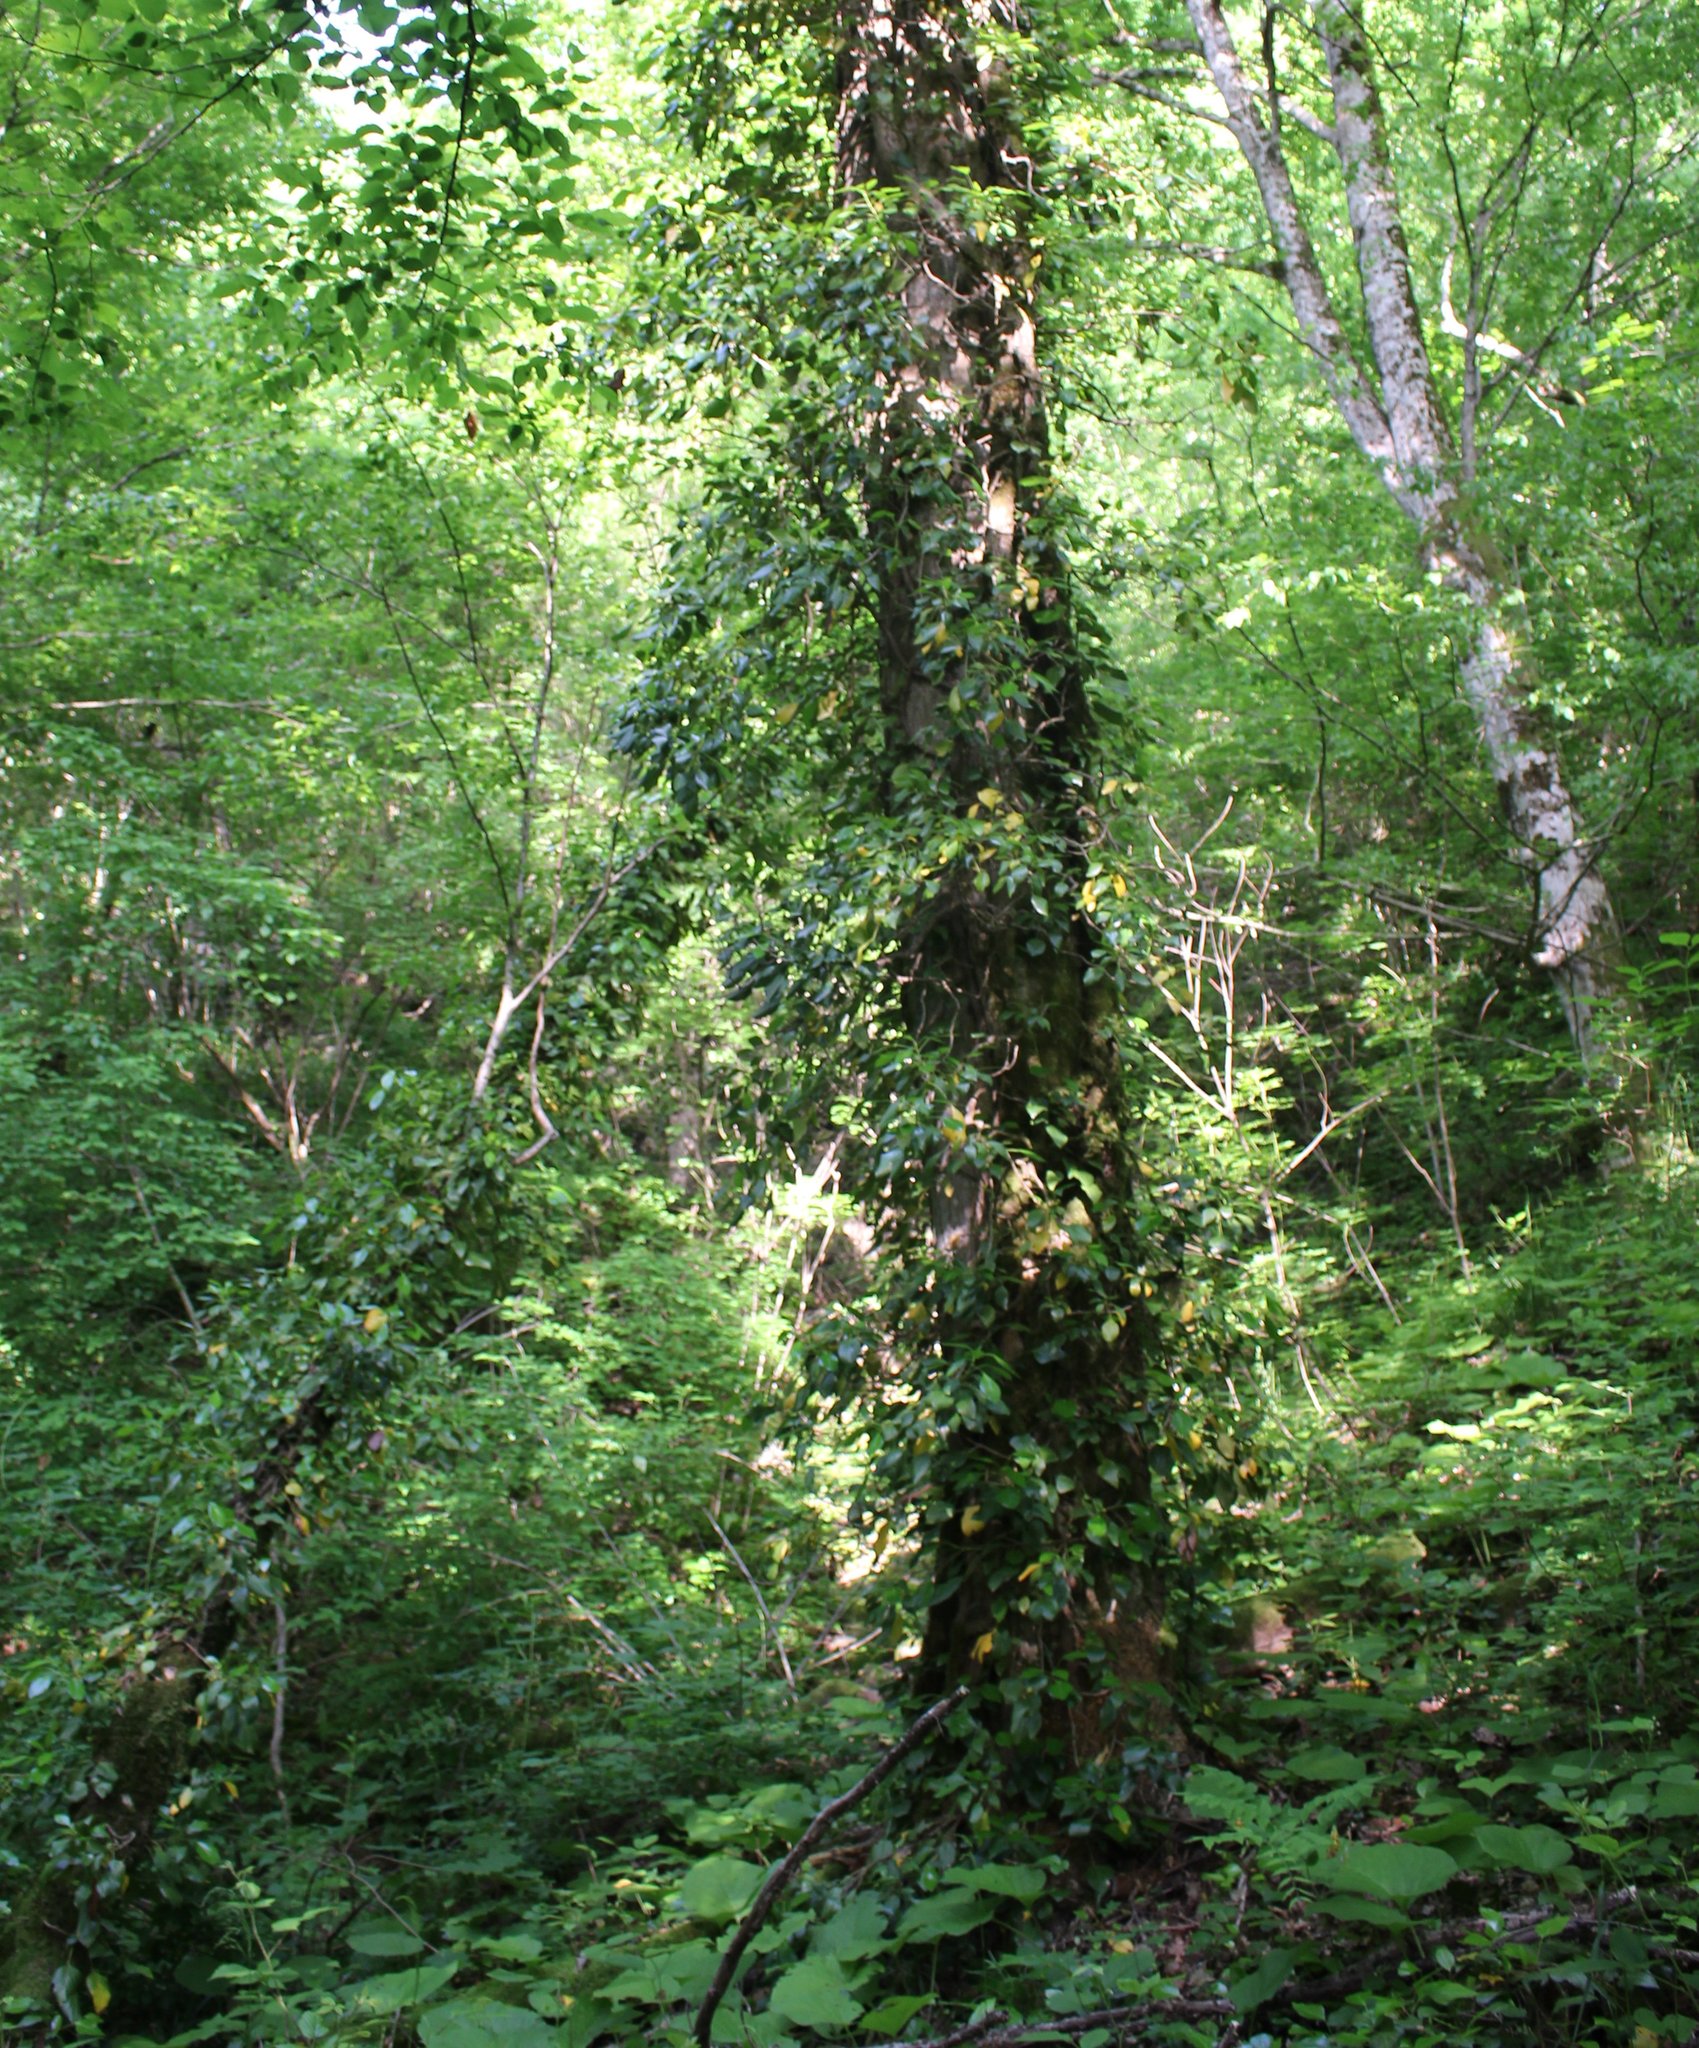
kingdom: Plantae
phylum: Tracheophyta
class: Magnoliopsida
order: Apiales
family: Araliaceae
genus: Hedera
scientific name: Hedera colchica
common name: Persian ivy
